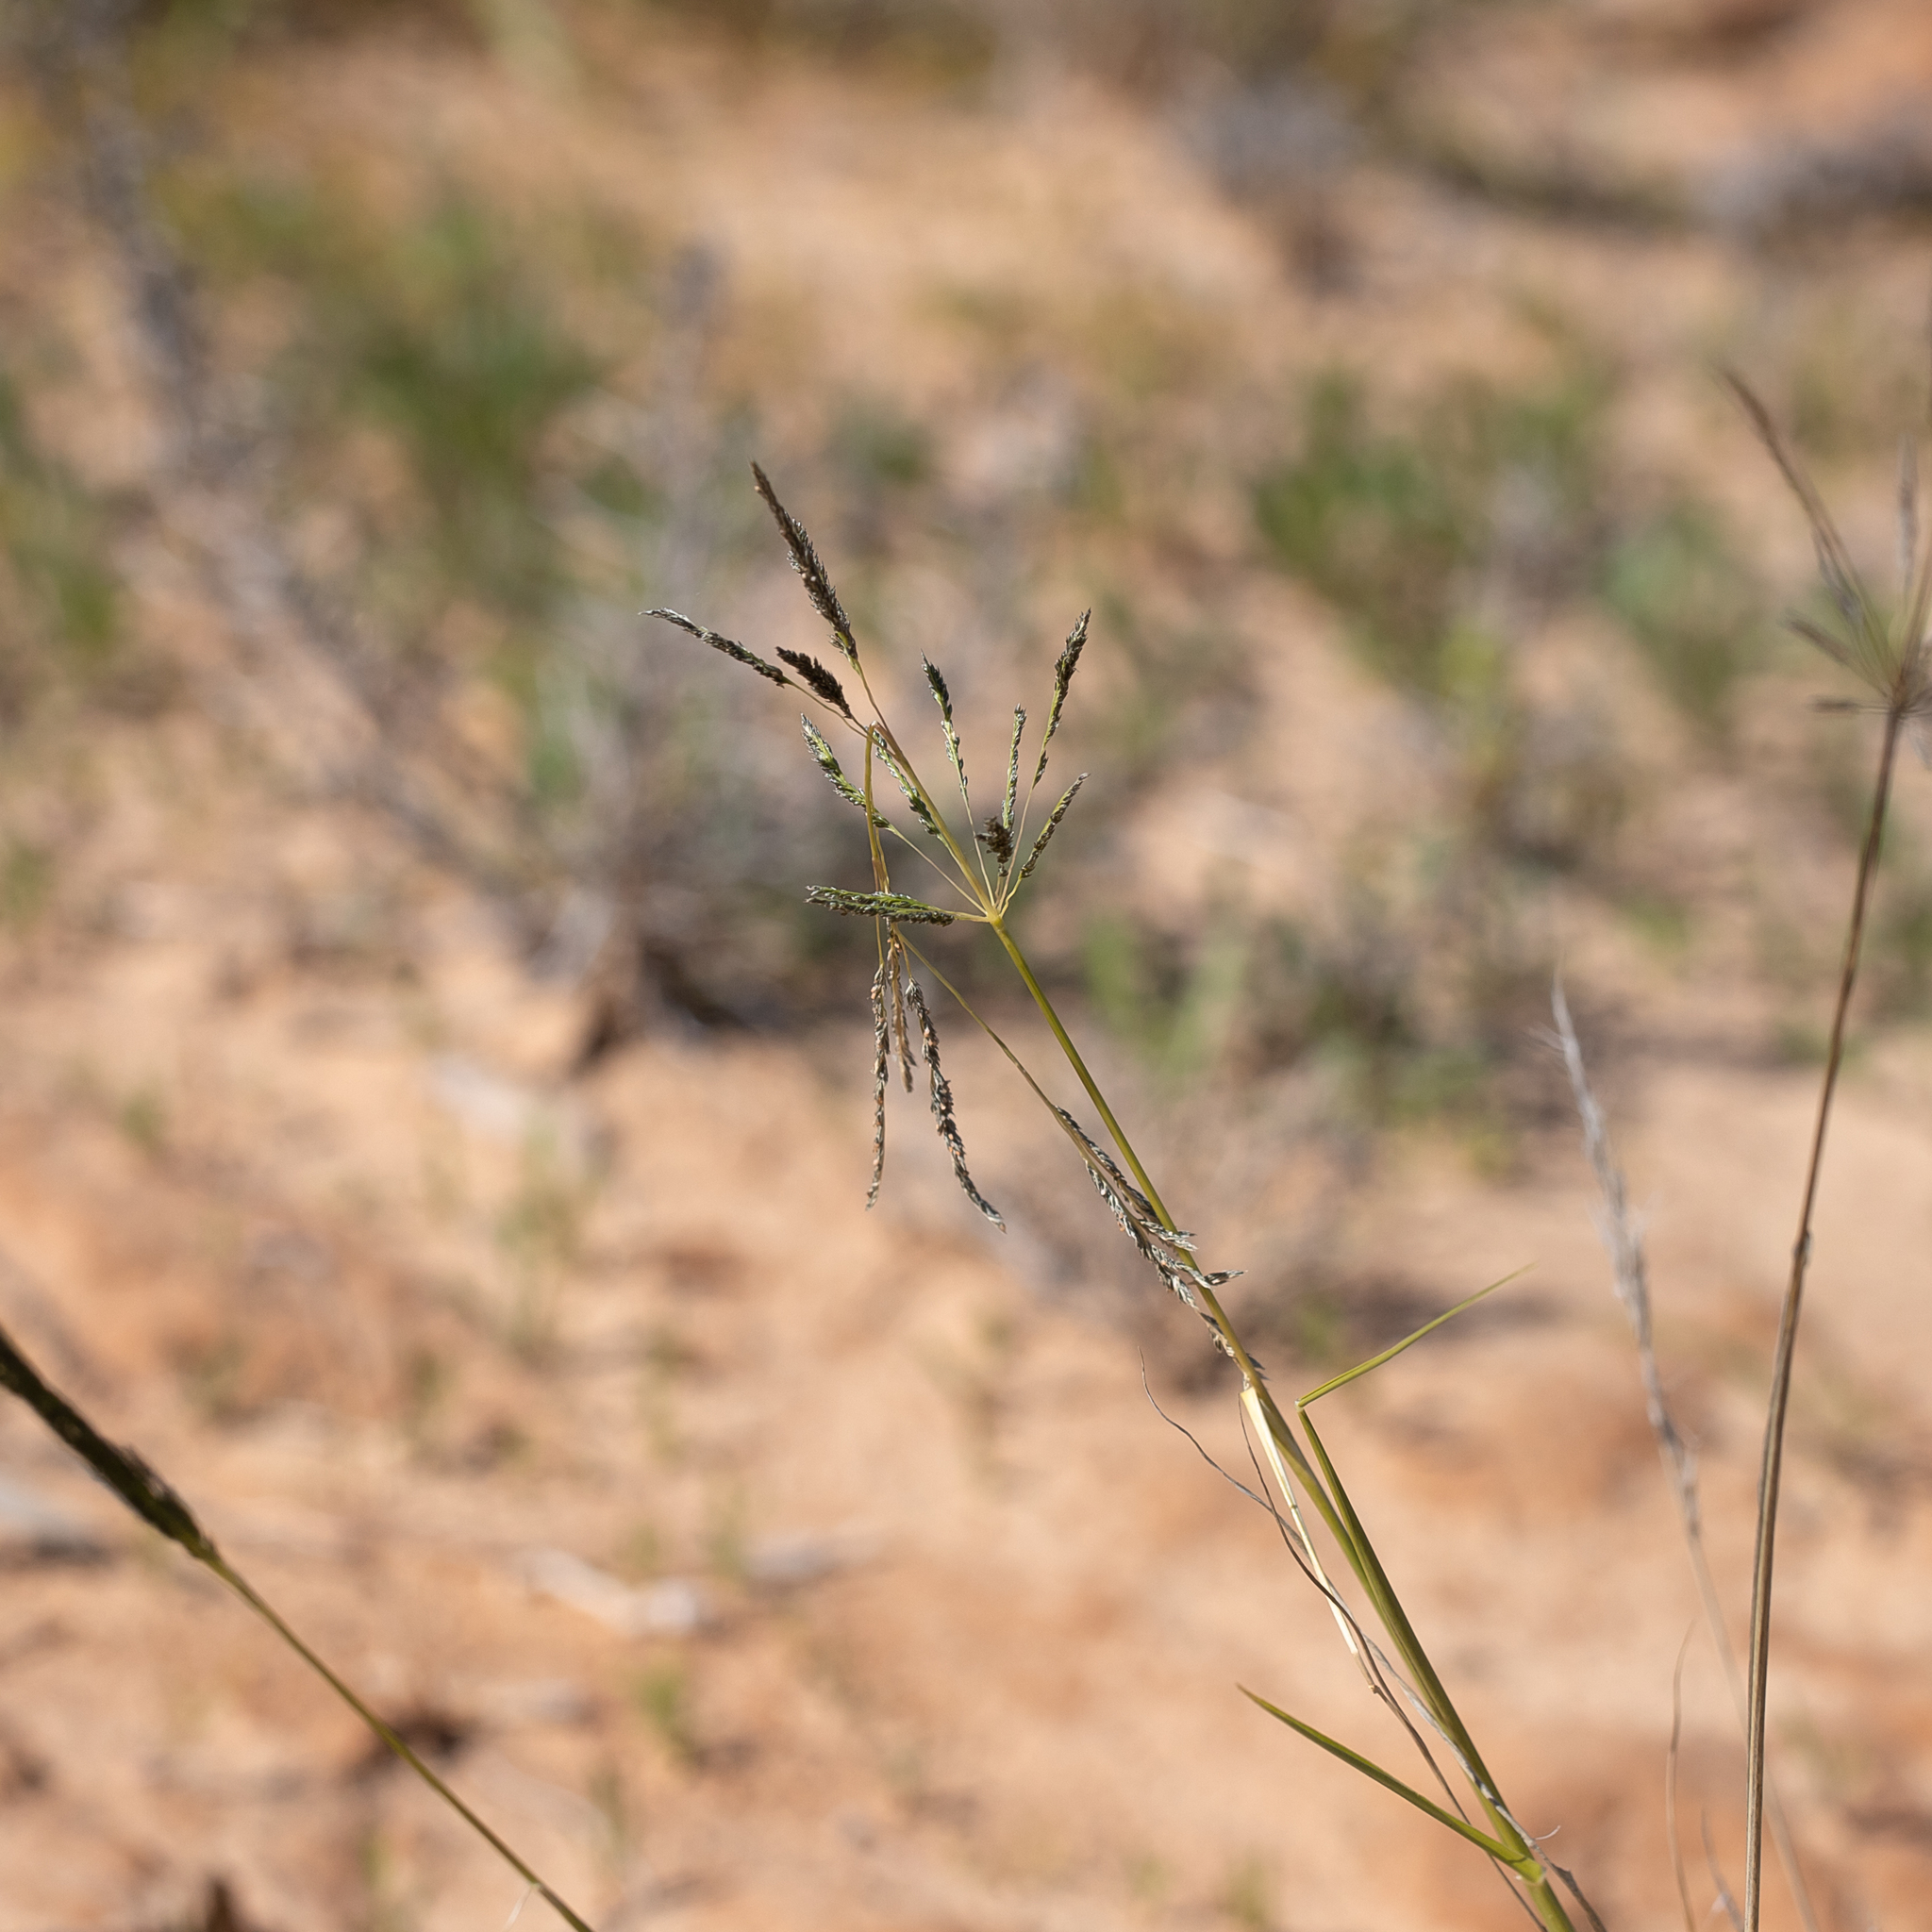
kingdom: Plantae
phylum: Tracheophyta
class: Liliopsida
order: Poales
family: Poaceae
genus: Sporobolus
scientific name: Sporobolus actinocladus
